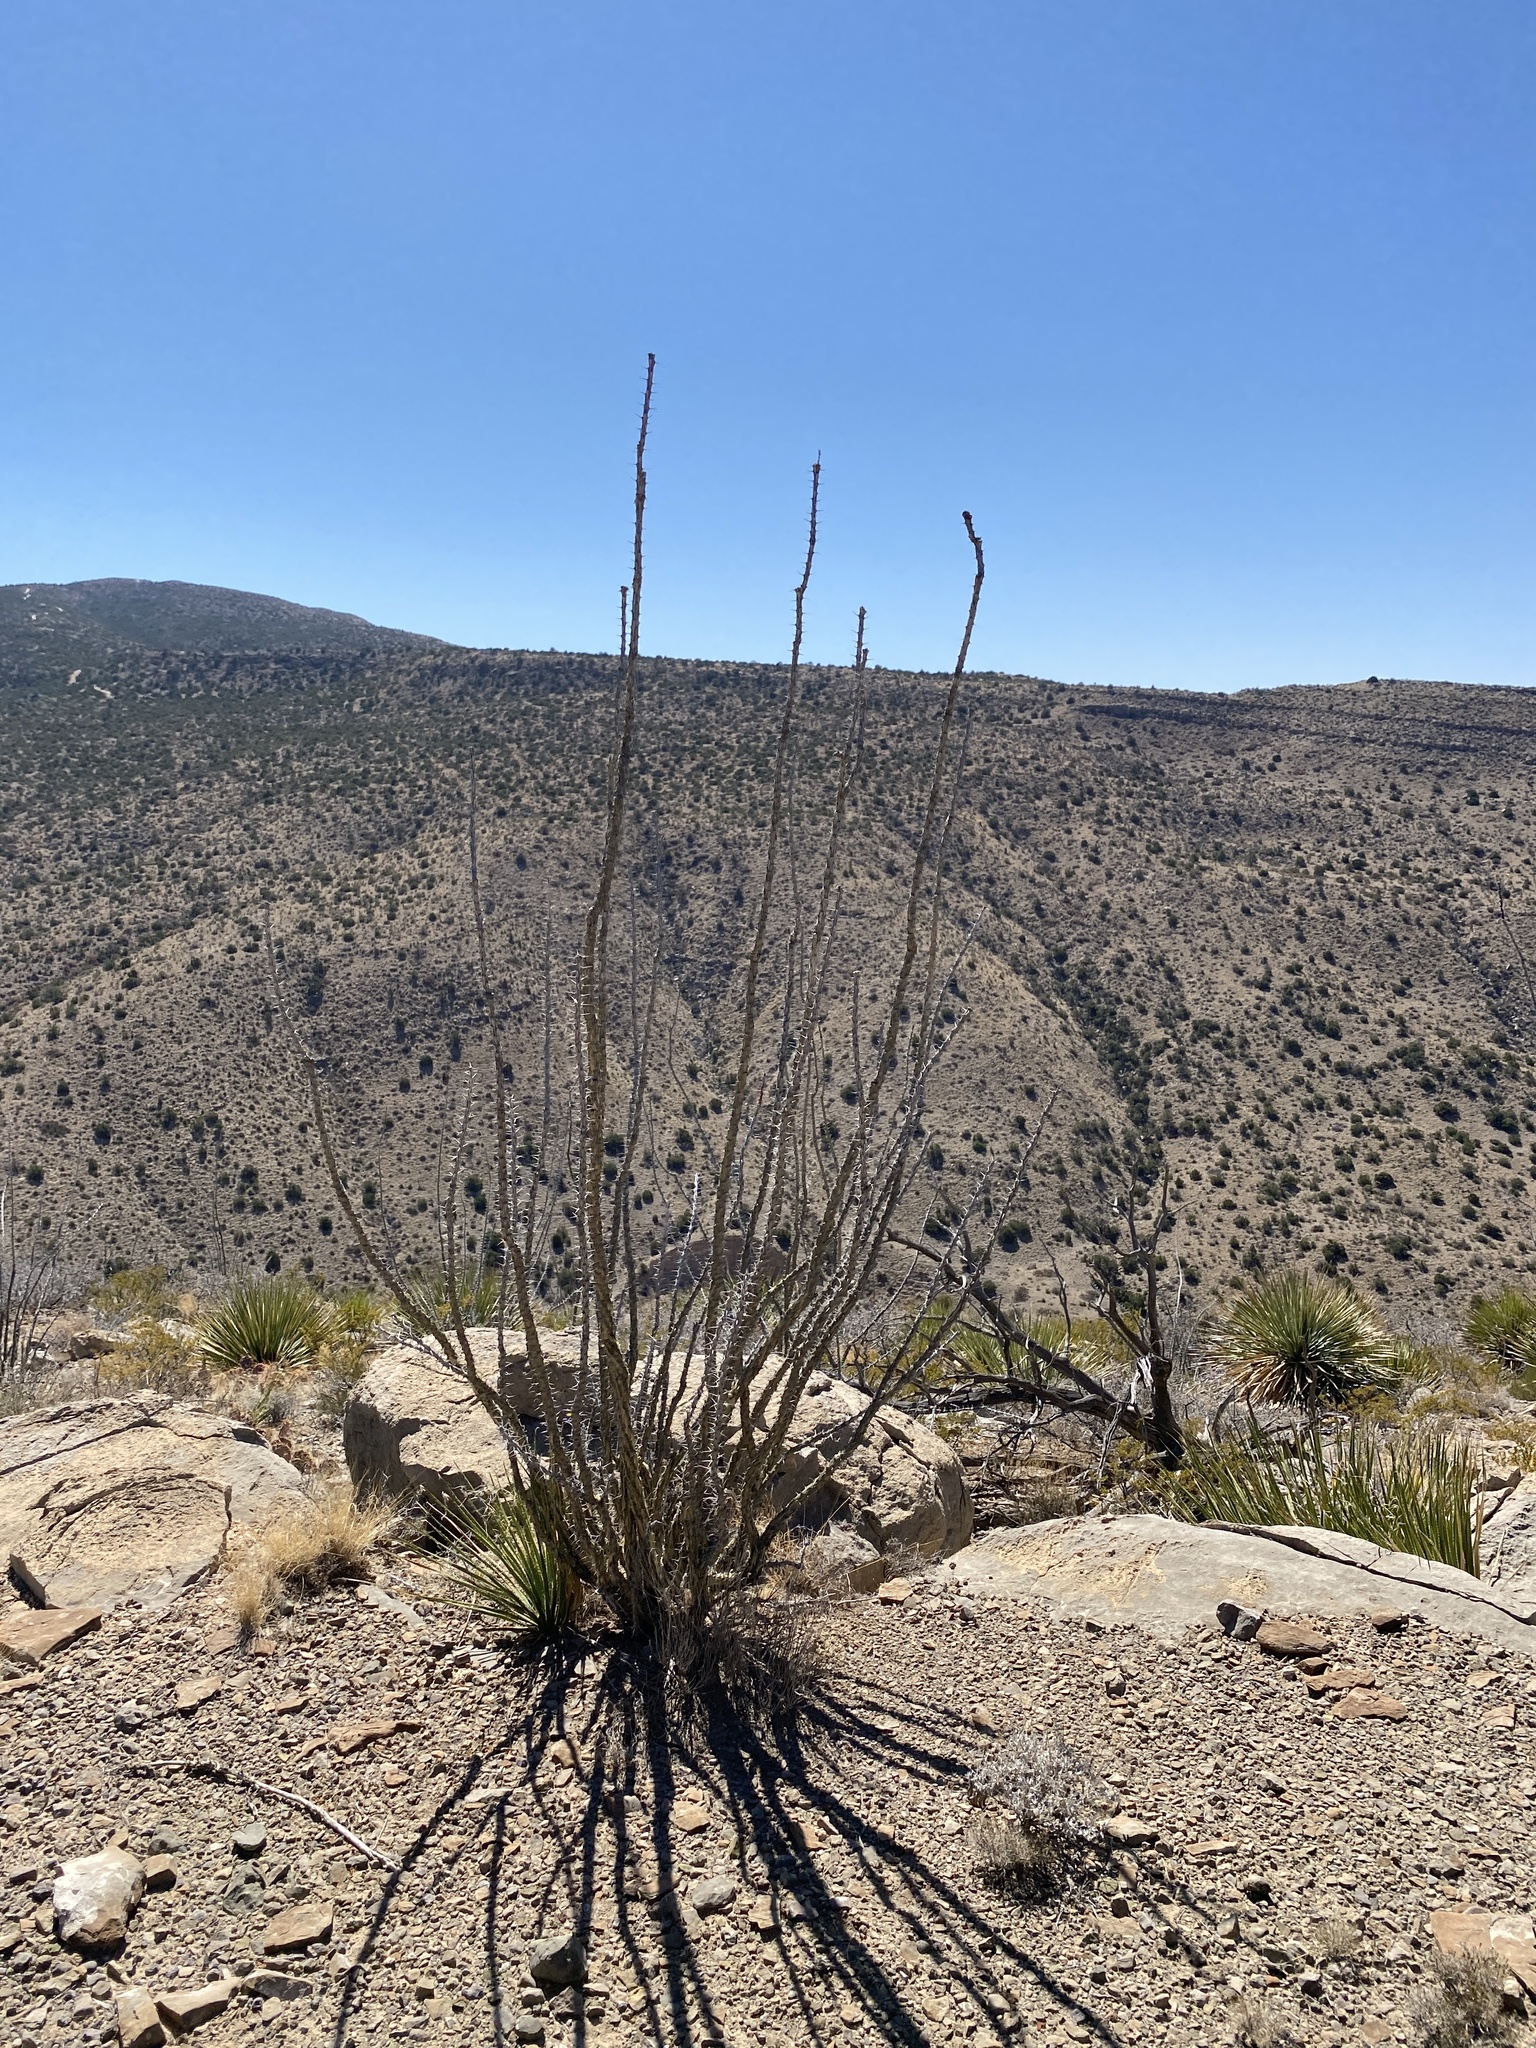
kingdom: Plantae
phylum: Tracheophyta
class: Magnoliopsida
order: Ericales
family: Fouquieriaceae
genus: Fouquieria
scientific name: Fouquieria splendens
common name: Vine-cactus
